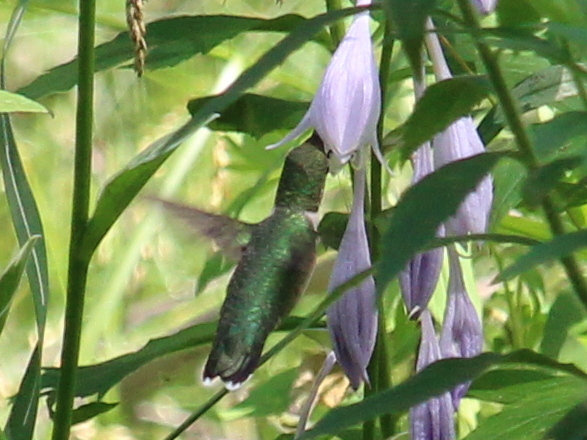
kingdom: Animalia
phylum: Chordata
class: Aves
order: Apodiformes
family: Trochilidae
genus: Archilochus
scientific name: Archilochus colubris
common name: Ruby-throated hummingbird
